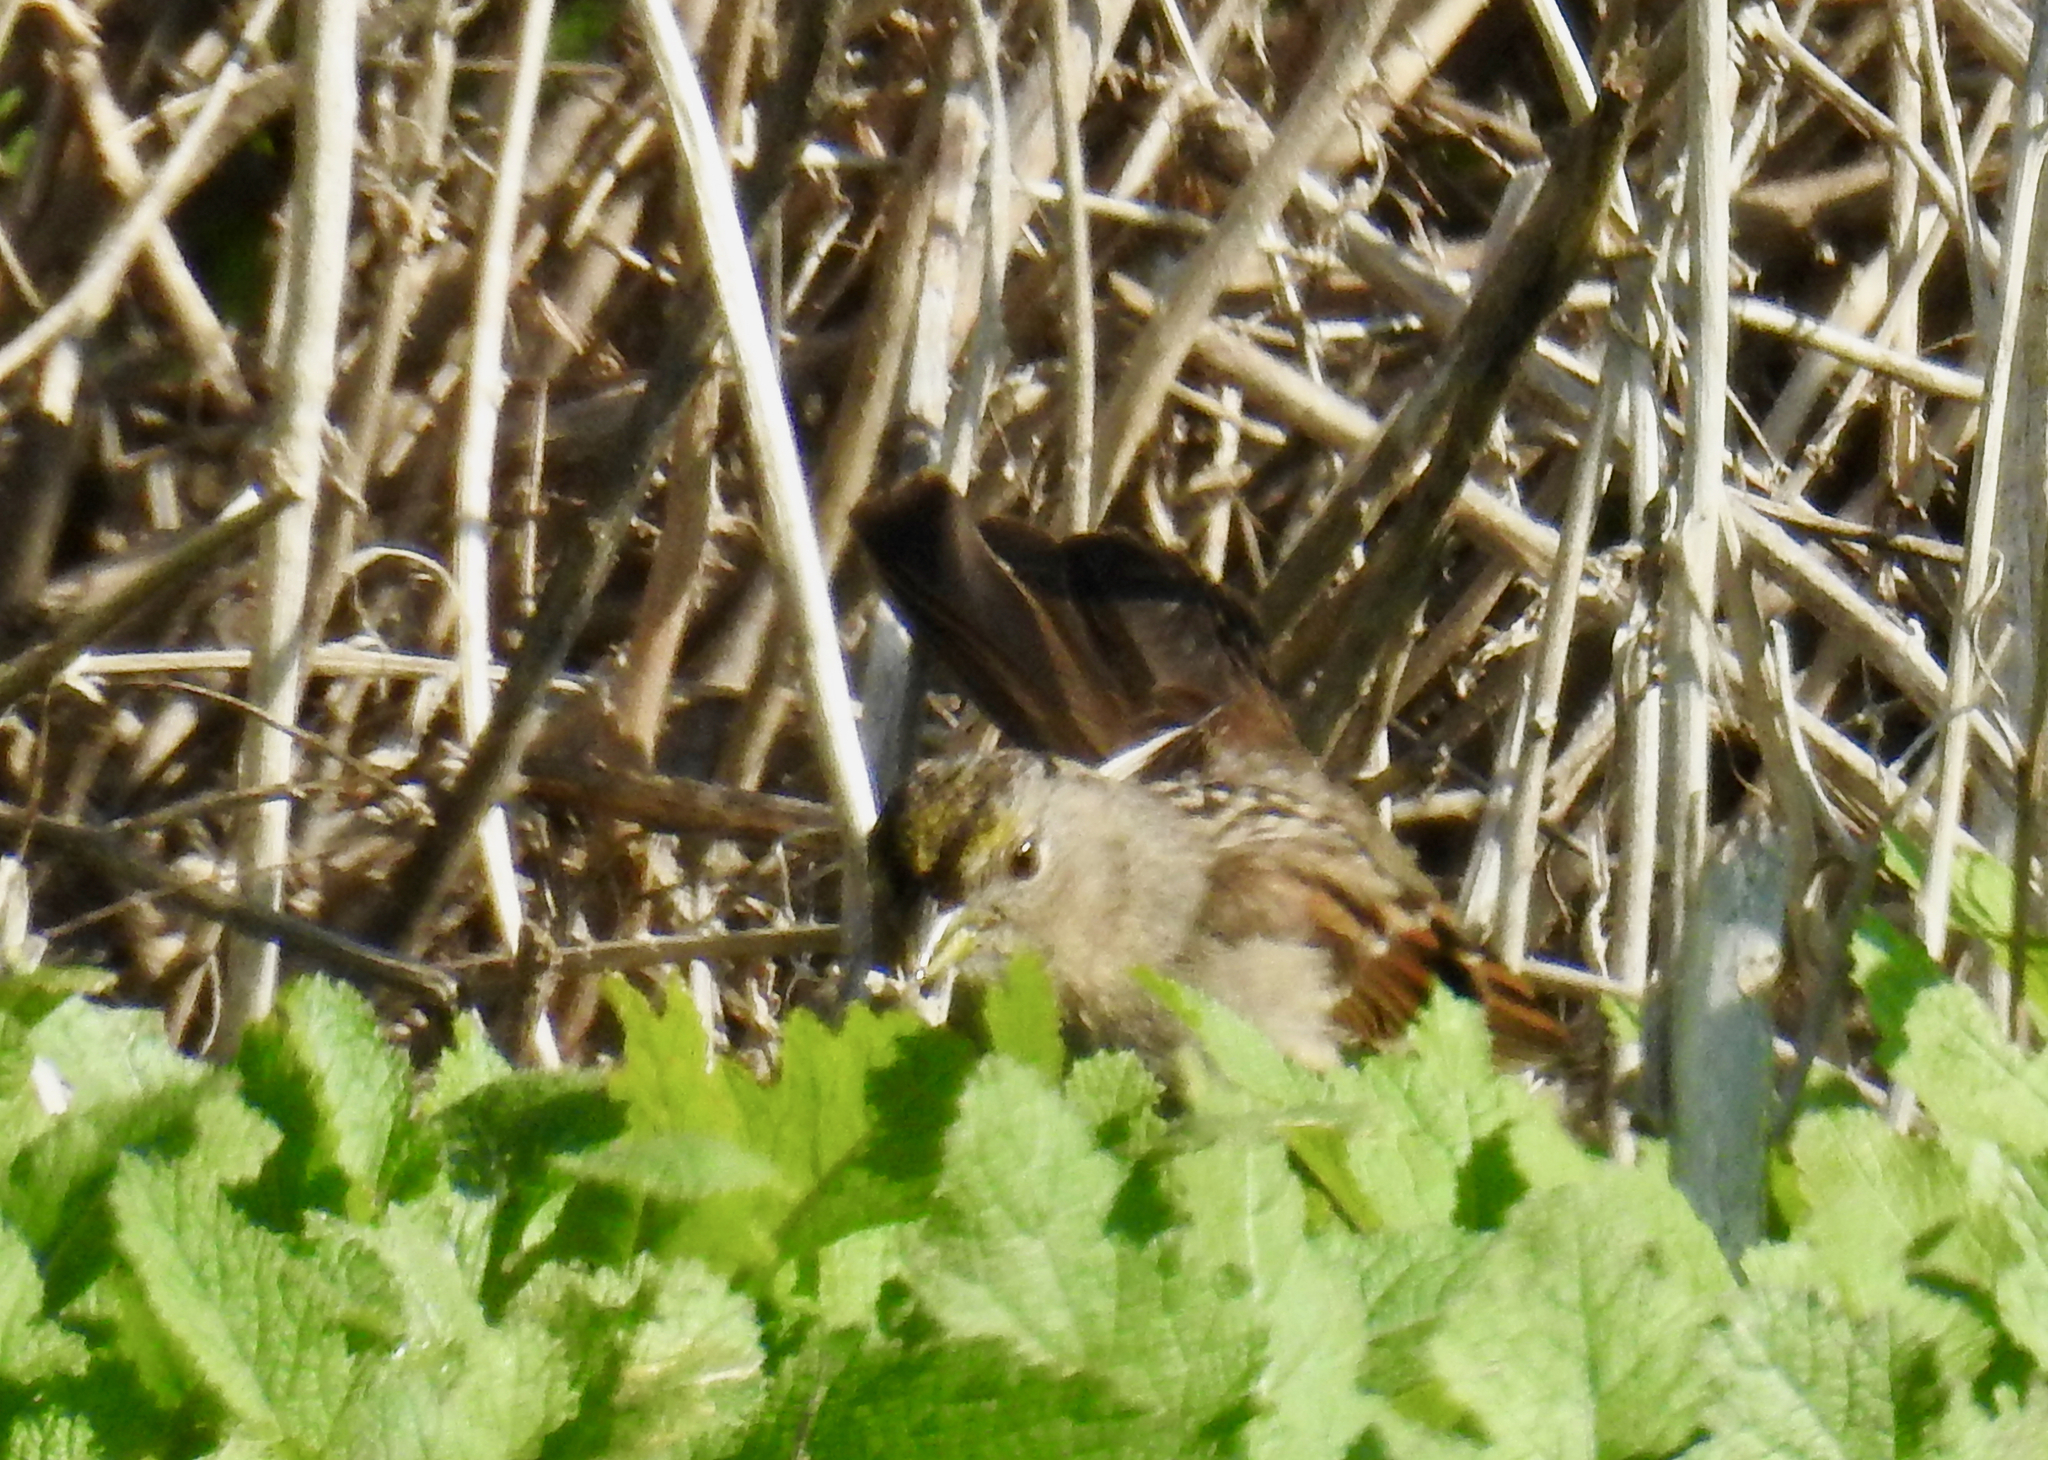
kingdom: Animalia
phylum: Chordata
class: Aves
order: Passeriformes
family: Passerellidae
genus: Zonotrichia
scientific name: Zonotrichia atricapilla
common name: Golden-crowned sparrow
